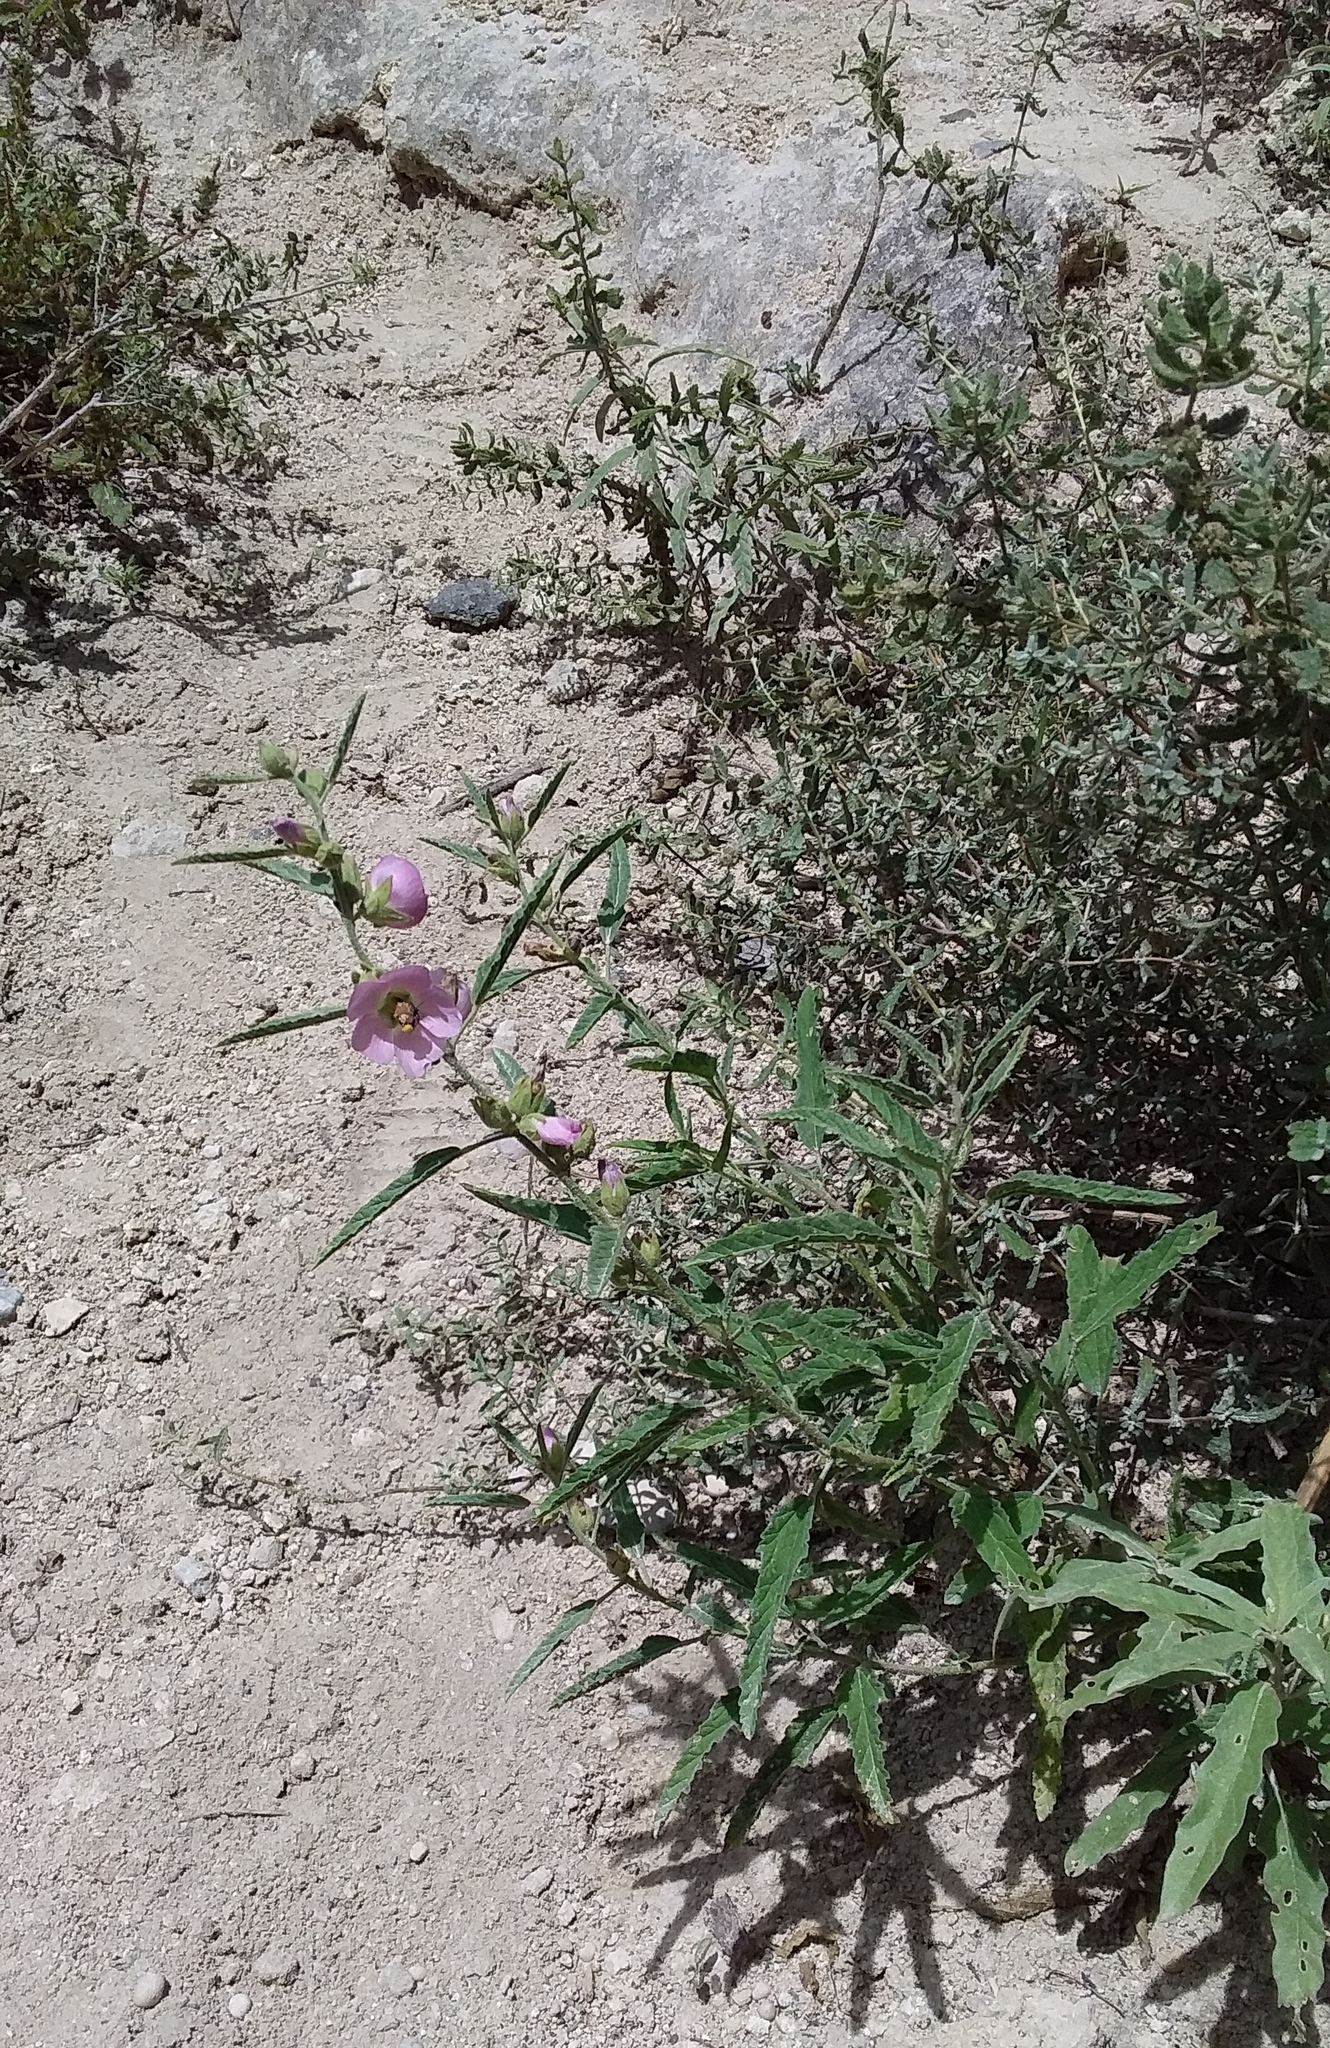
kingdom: Plantae
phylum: Tracheophyta
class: Magnoliopsida
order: Malvales
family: Malvaceae
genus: Sphaeralcea
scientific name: Sphaeralcea angustifolia
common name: Copper globe-mallow
